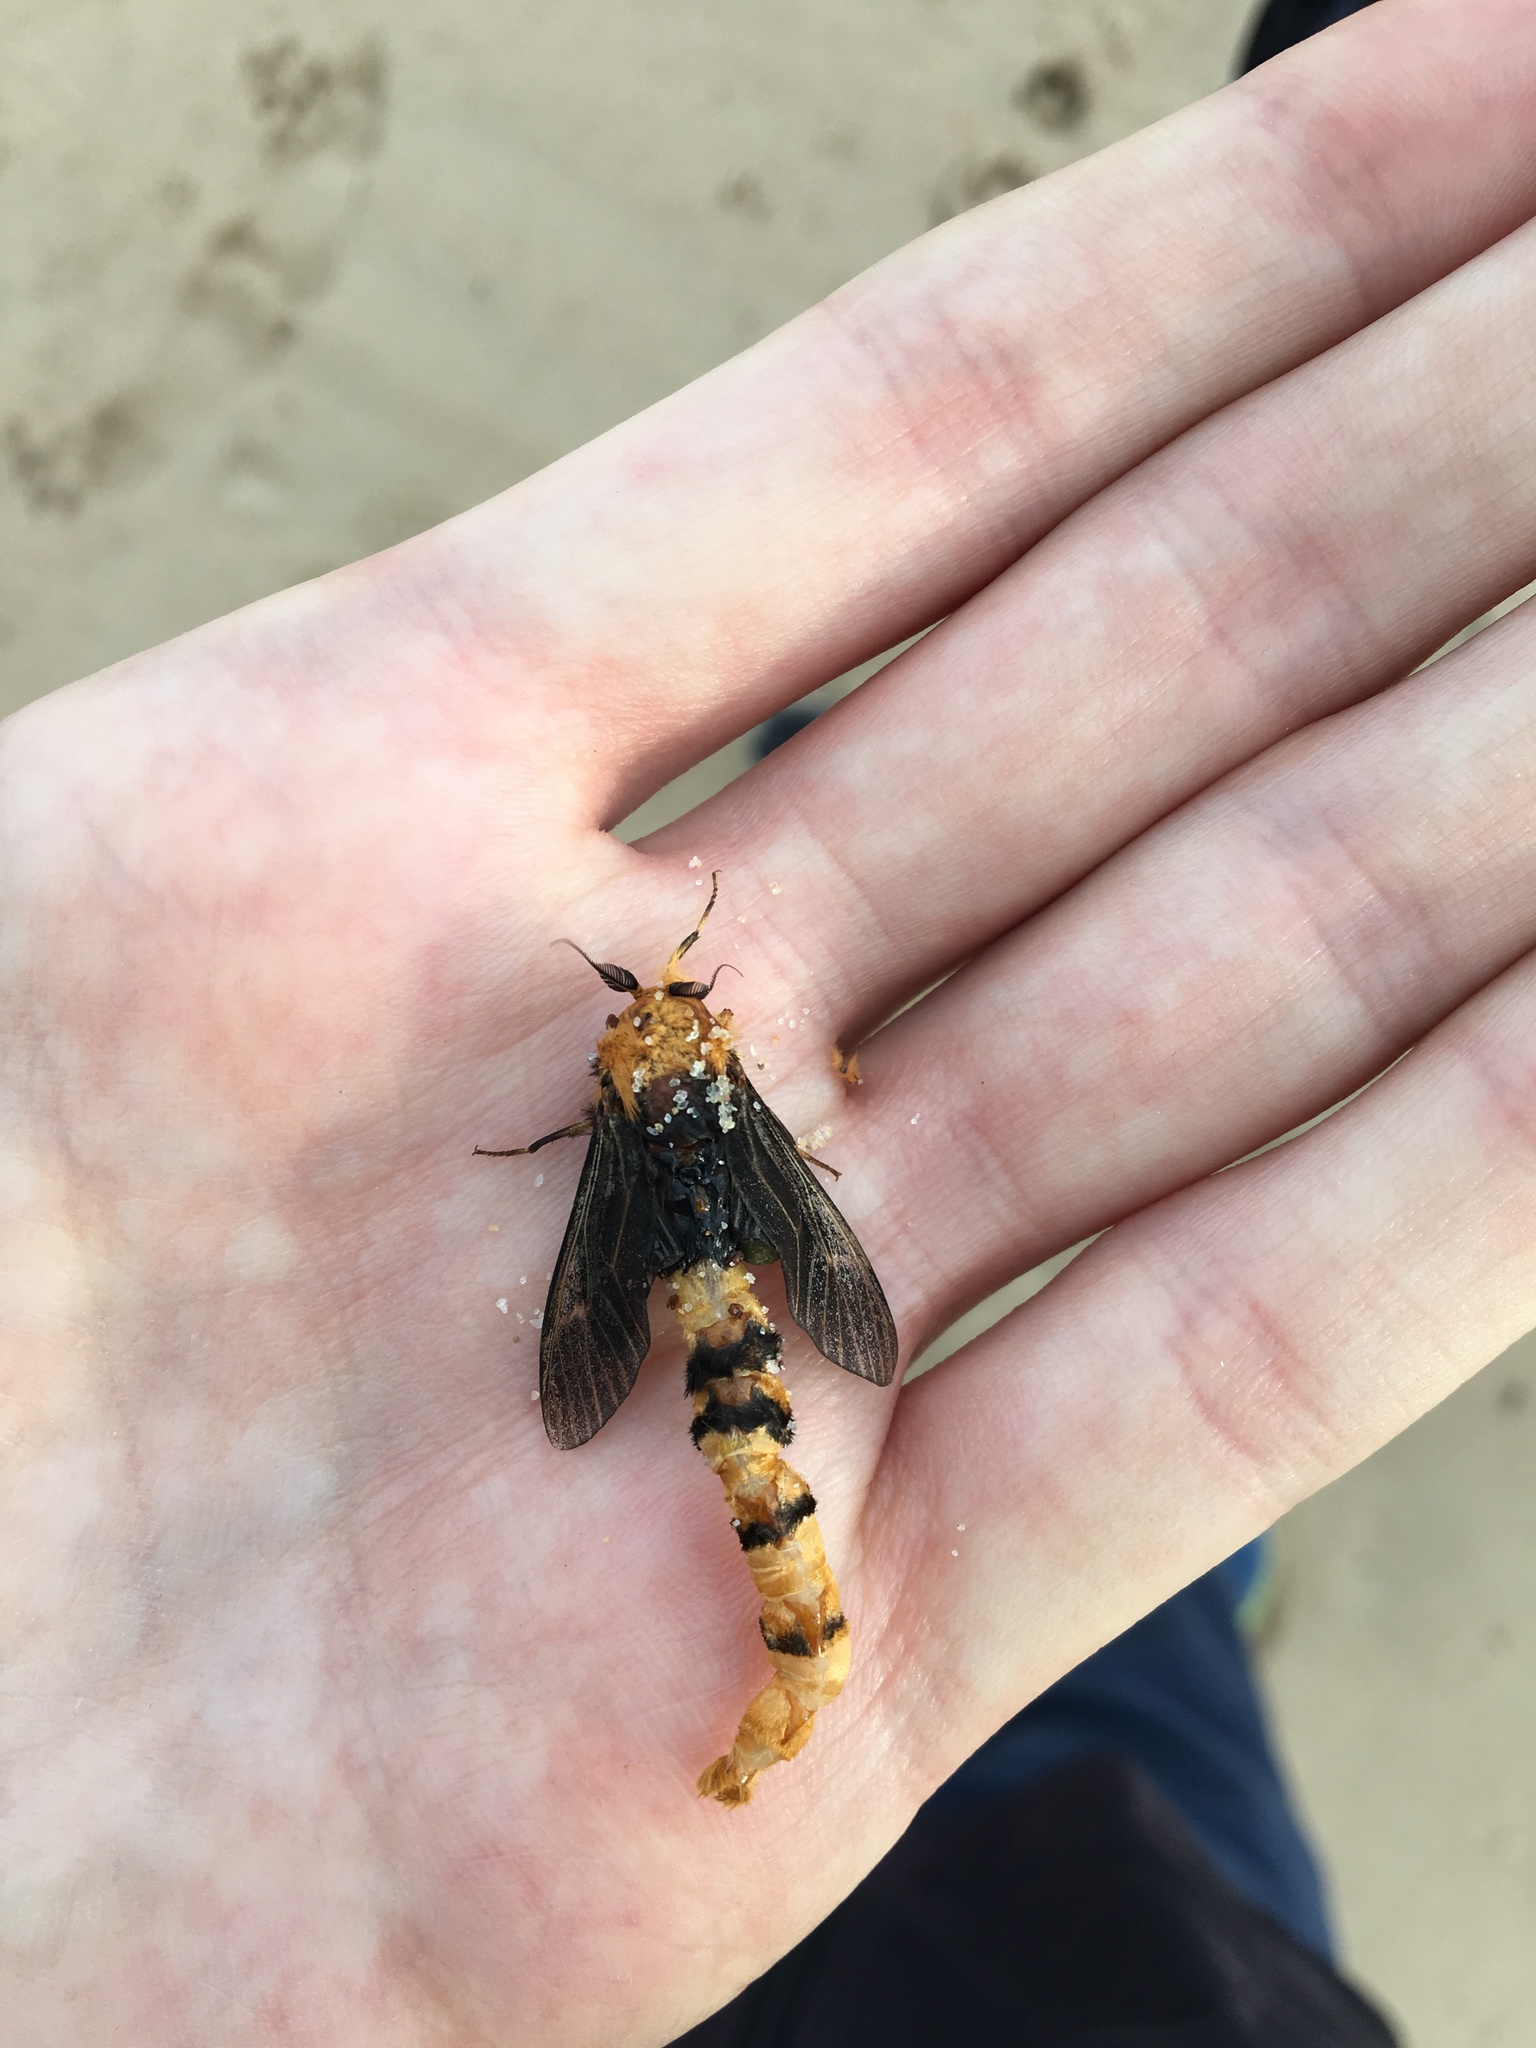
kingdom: Animalia
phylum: Arthropoda
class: Insecta
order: Lepidoptera
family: Psychidae
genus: Metura
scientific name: Metura elongatus
